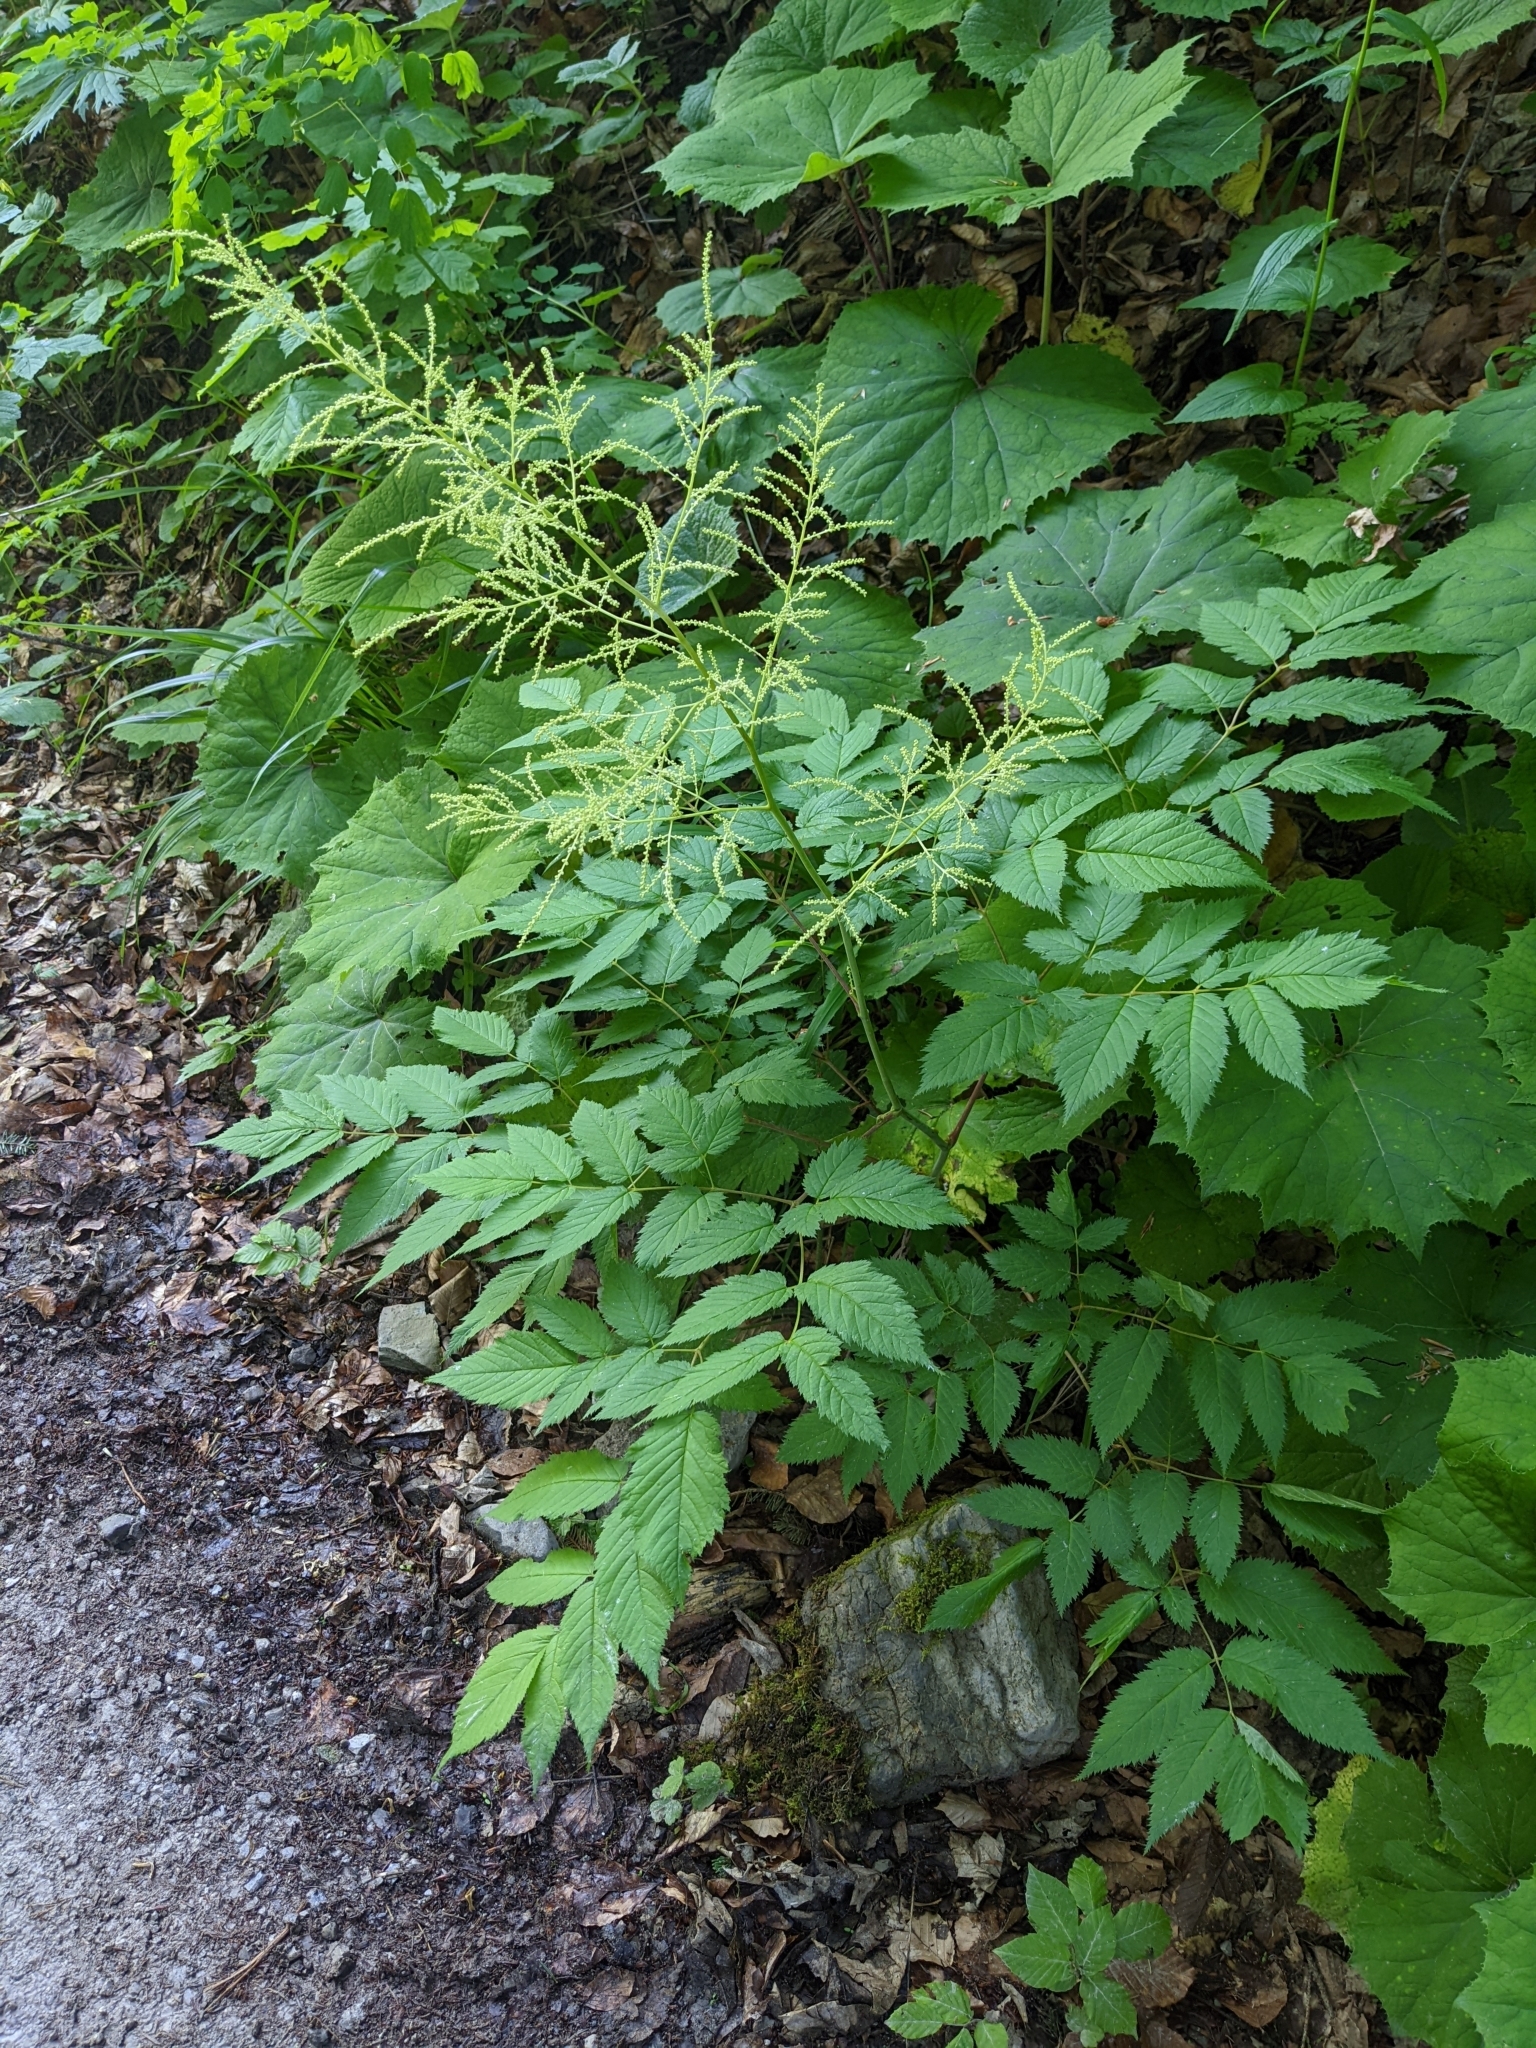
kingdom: Plantae
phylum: Tracheophyta
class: Magnoliopsida
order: Rosales
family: Rosaceae
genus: Aruncus
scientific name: Aruncus dioicus
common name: Buck's-beard
